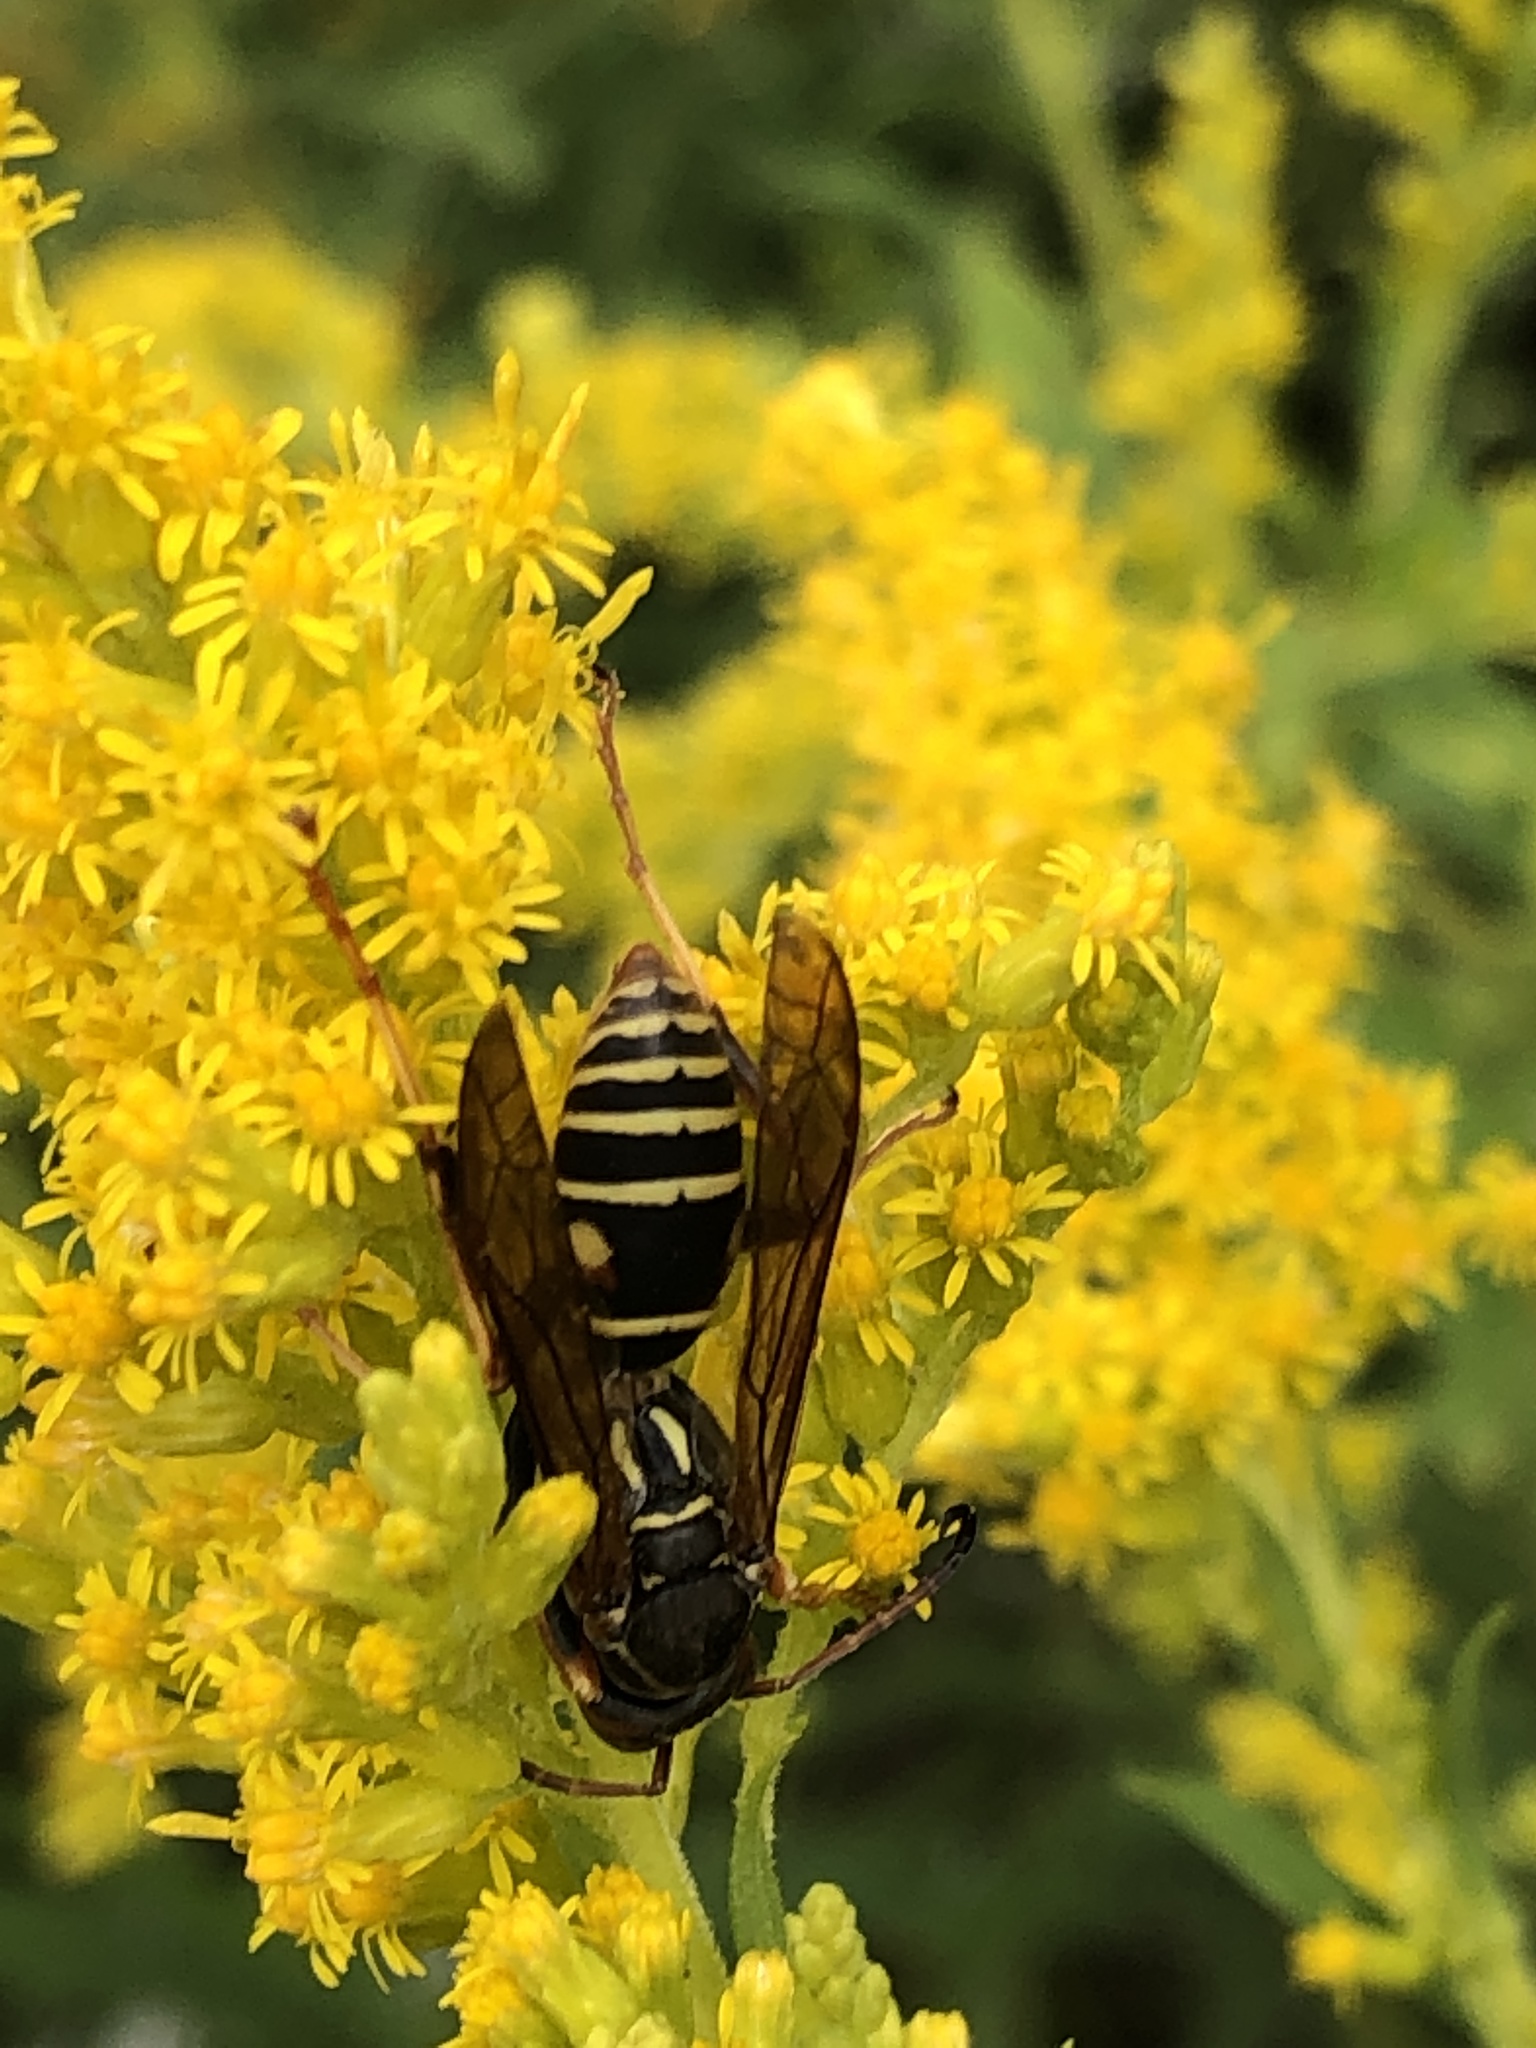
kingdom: Animalia
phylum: Arthropoda
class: Insecta
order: Hymenoptera
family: Eumenidae
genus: Polistes
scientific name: Polistes fuscatus
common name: Dark paper wasp
